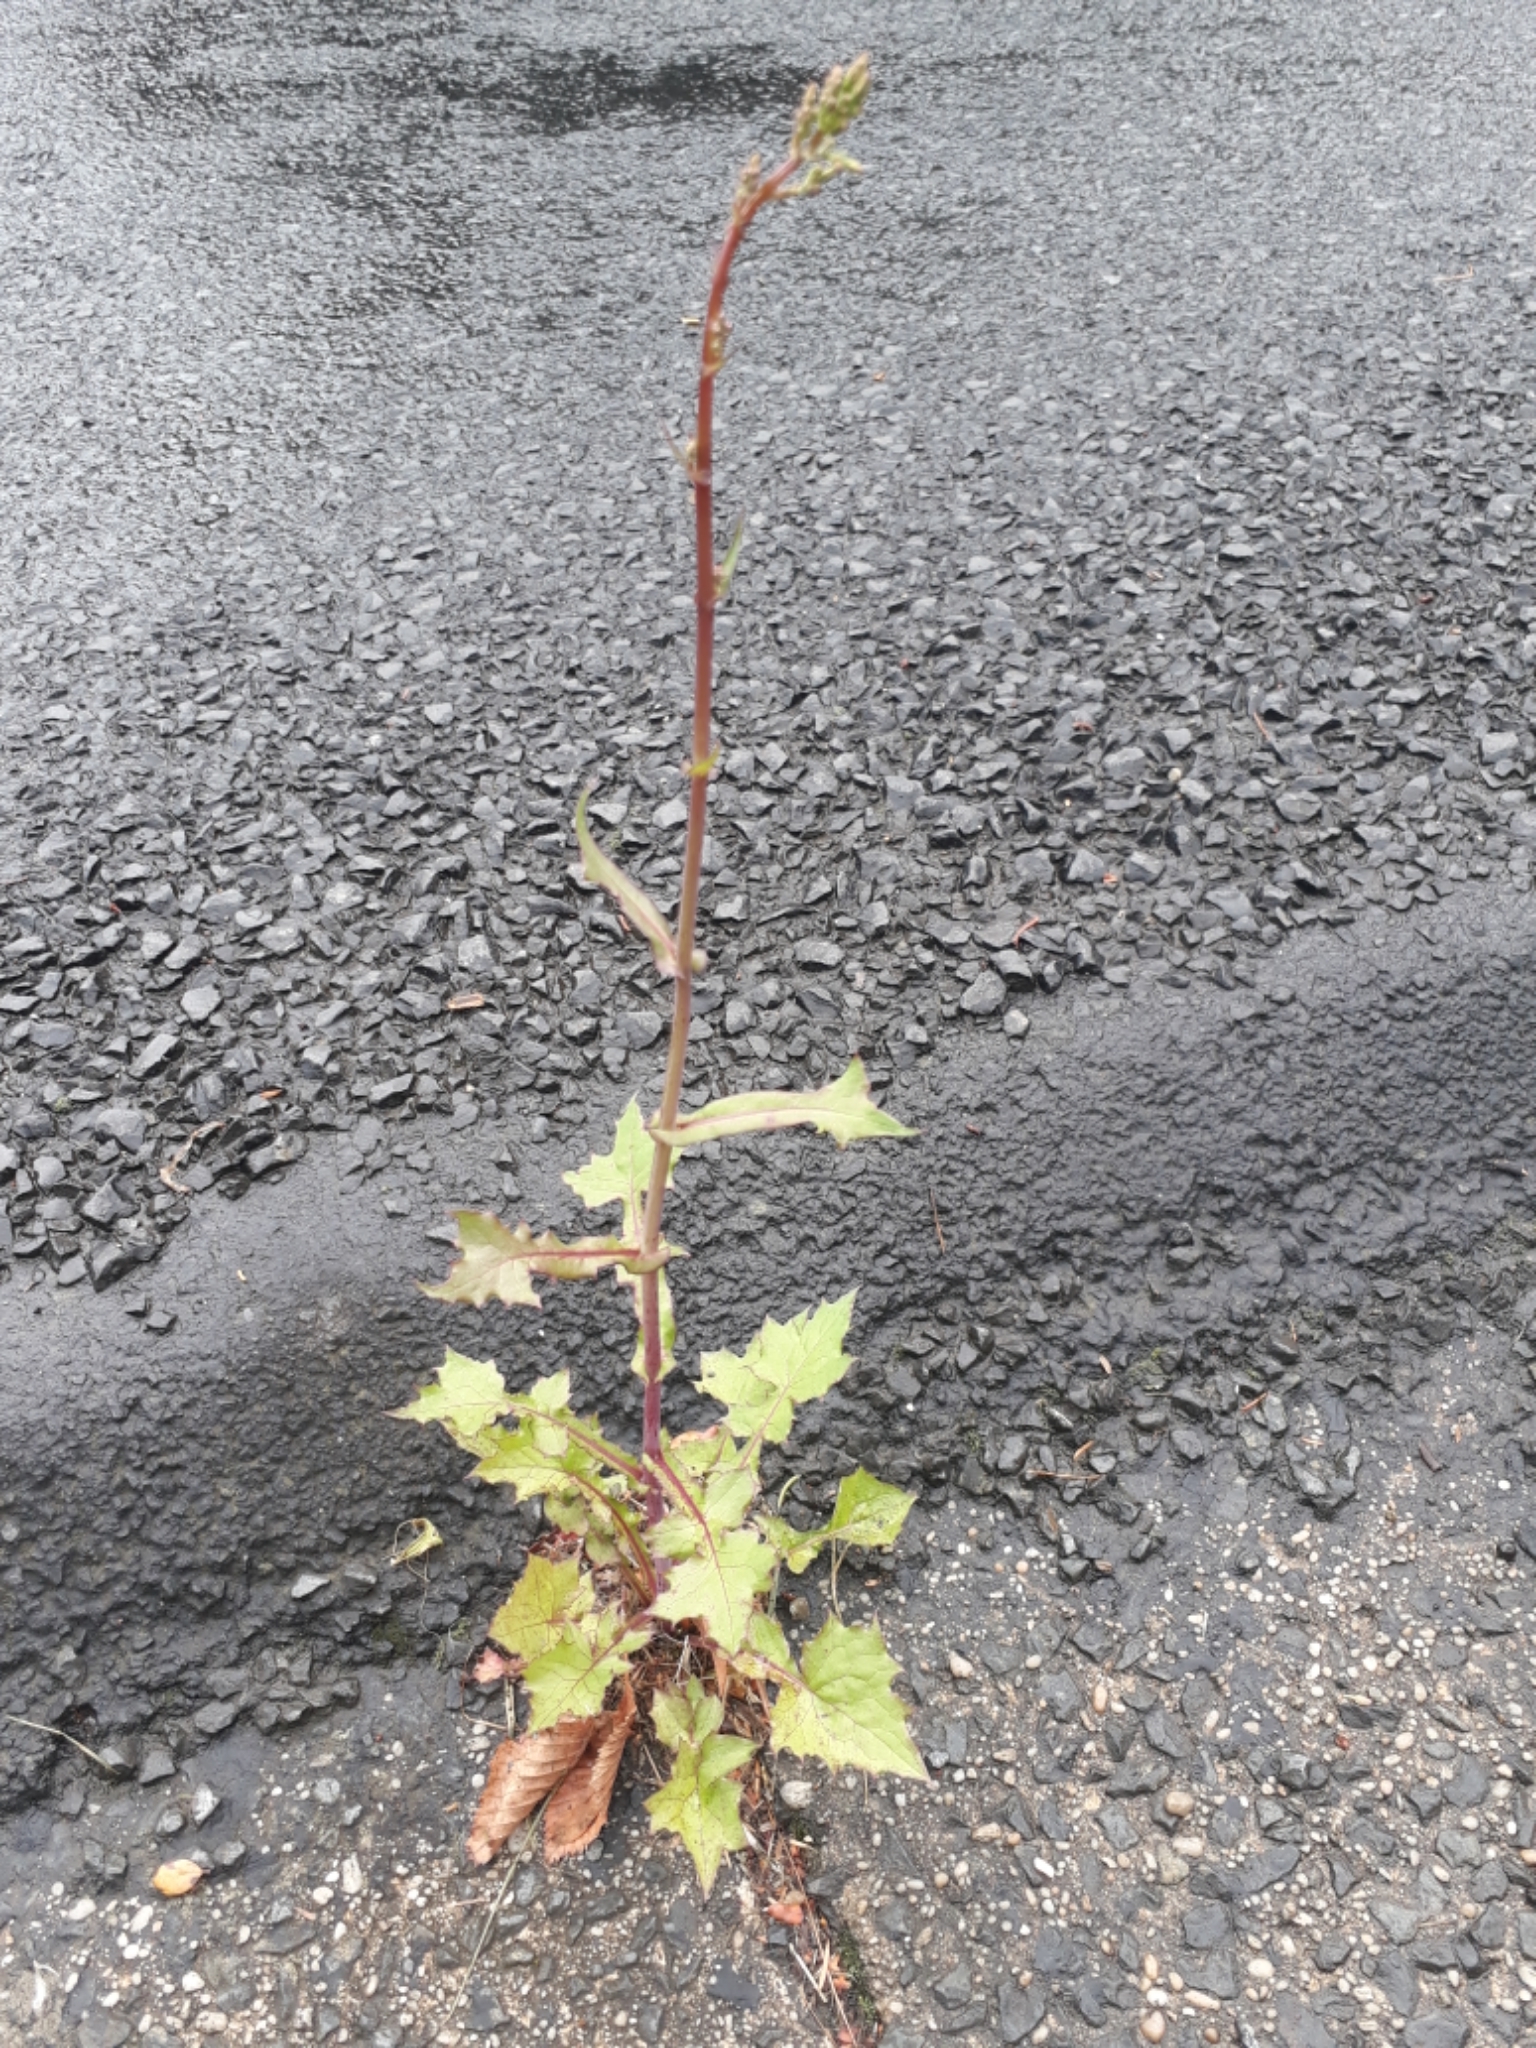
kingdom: Plantae
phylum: Tracheophyta
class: Magnoliopsida
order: Asterales
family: Asteraceae
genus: Mycelis
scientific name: Mycelis muralis
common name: Wall lettuce
